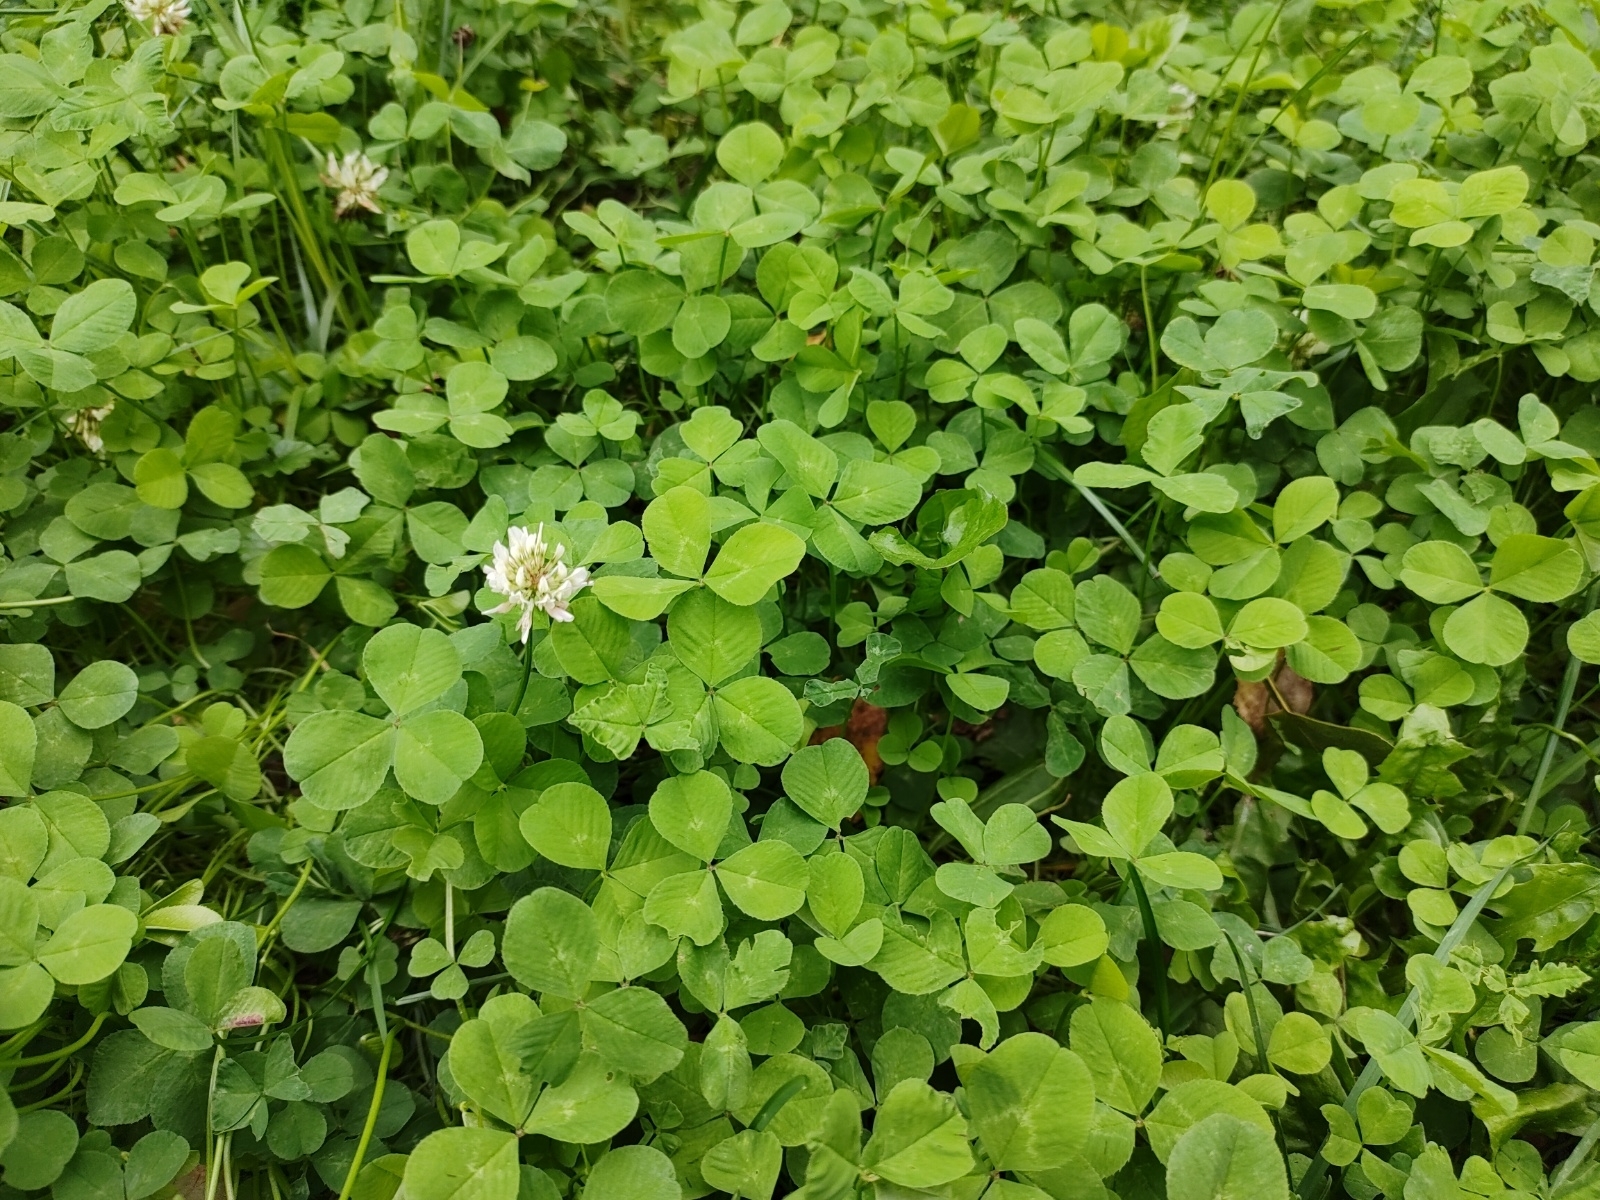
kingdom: Plantae
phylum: Tracheophyta
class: Magnoliopsida
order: Fabales
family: Fabaceae
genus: Trifolium
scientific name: Trifolium repens
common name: White clover
